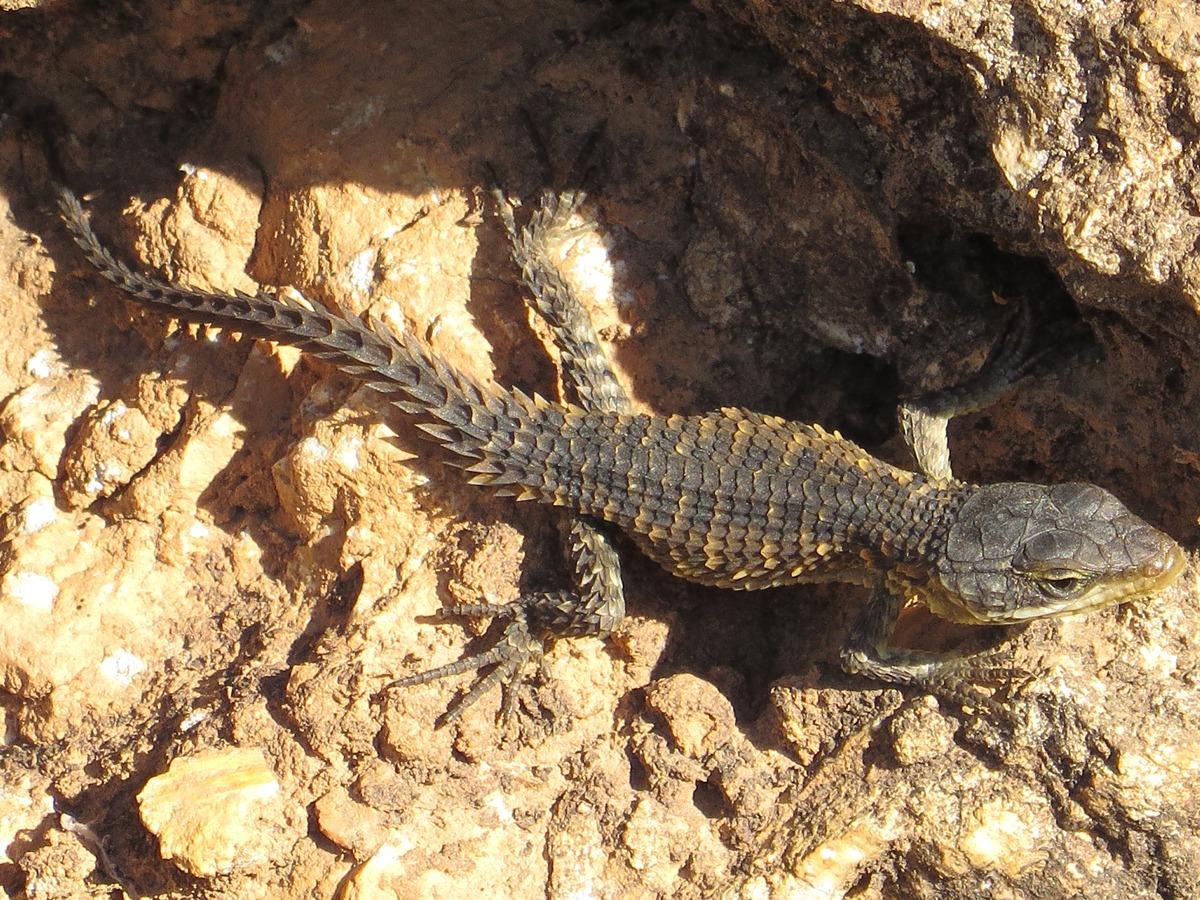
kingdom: Animalia
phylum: Chordata
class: Squamata
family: Cordylidae
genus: Cordylus
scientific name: Cordylus cordylus
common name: Cape girdled lizard
